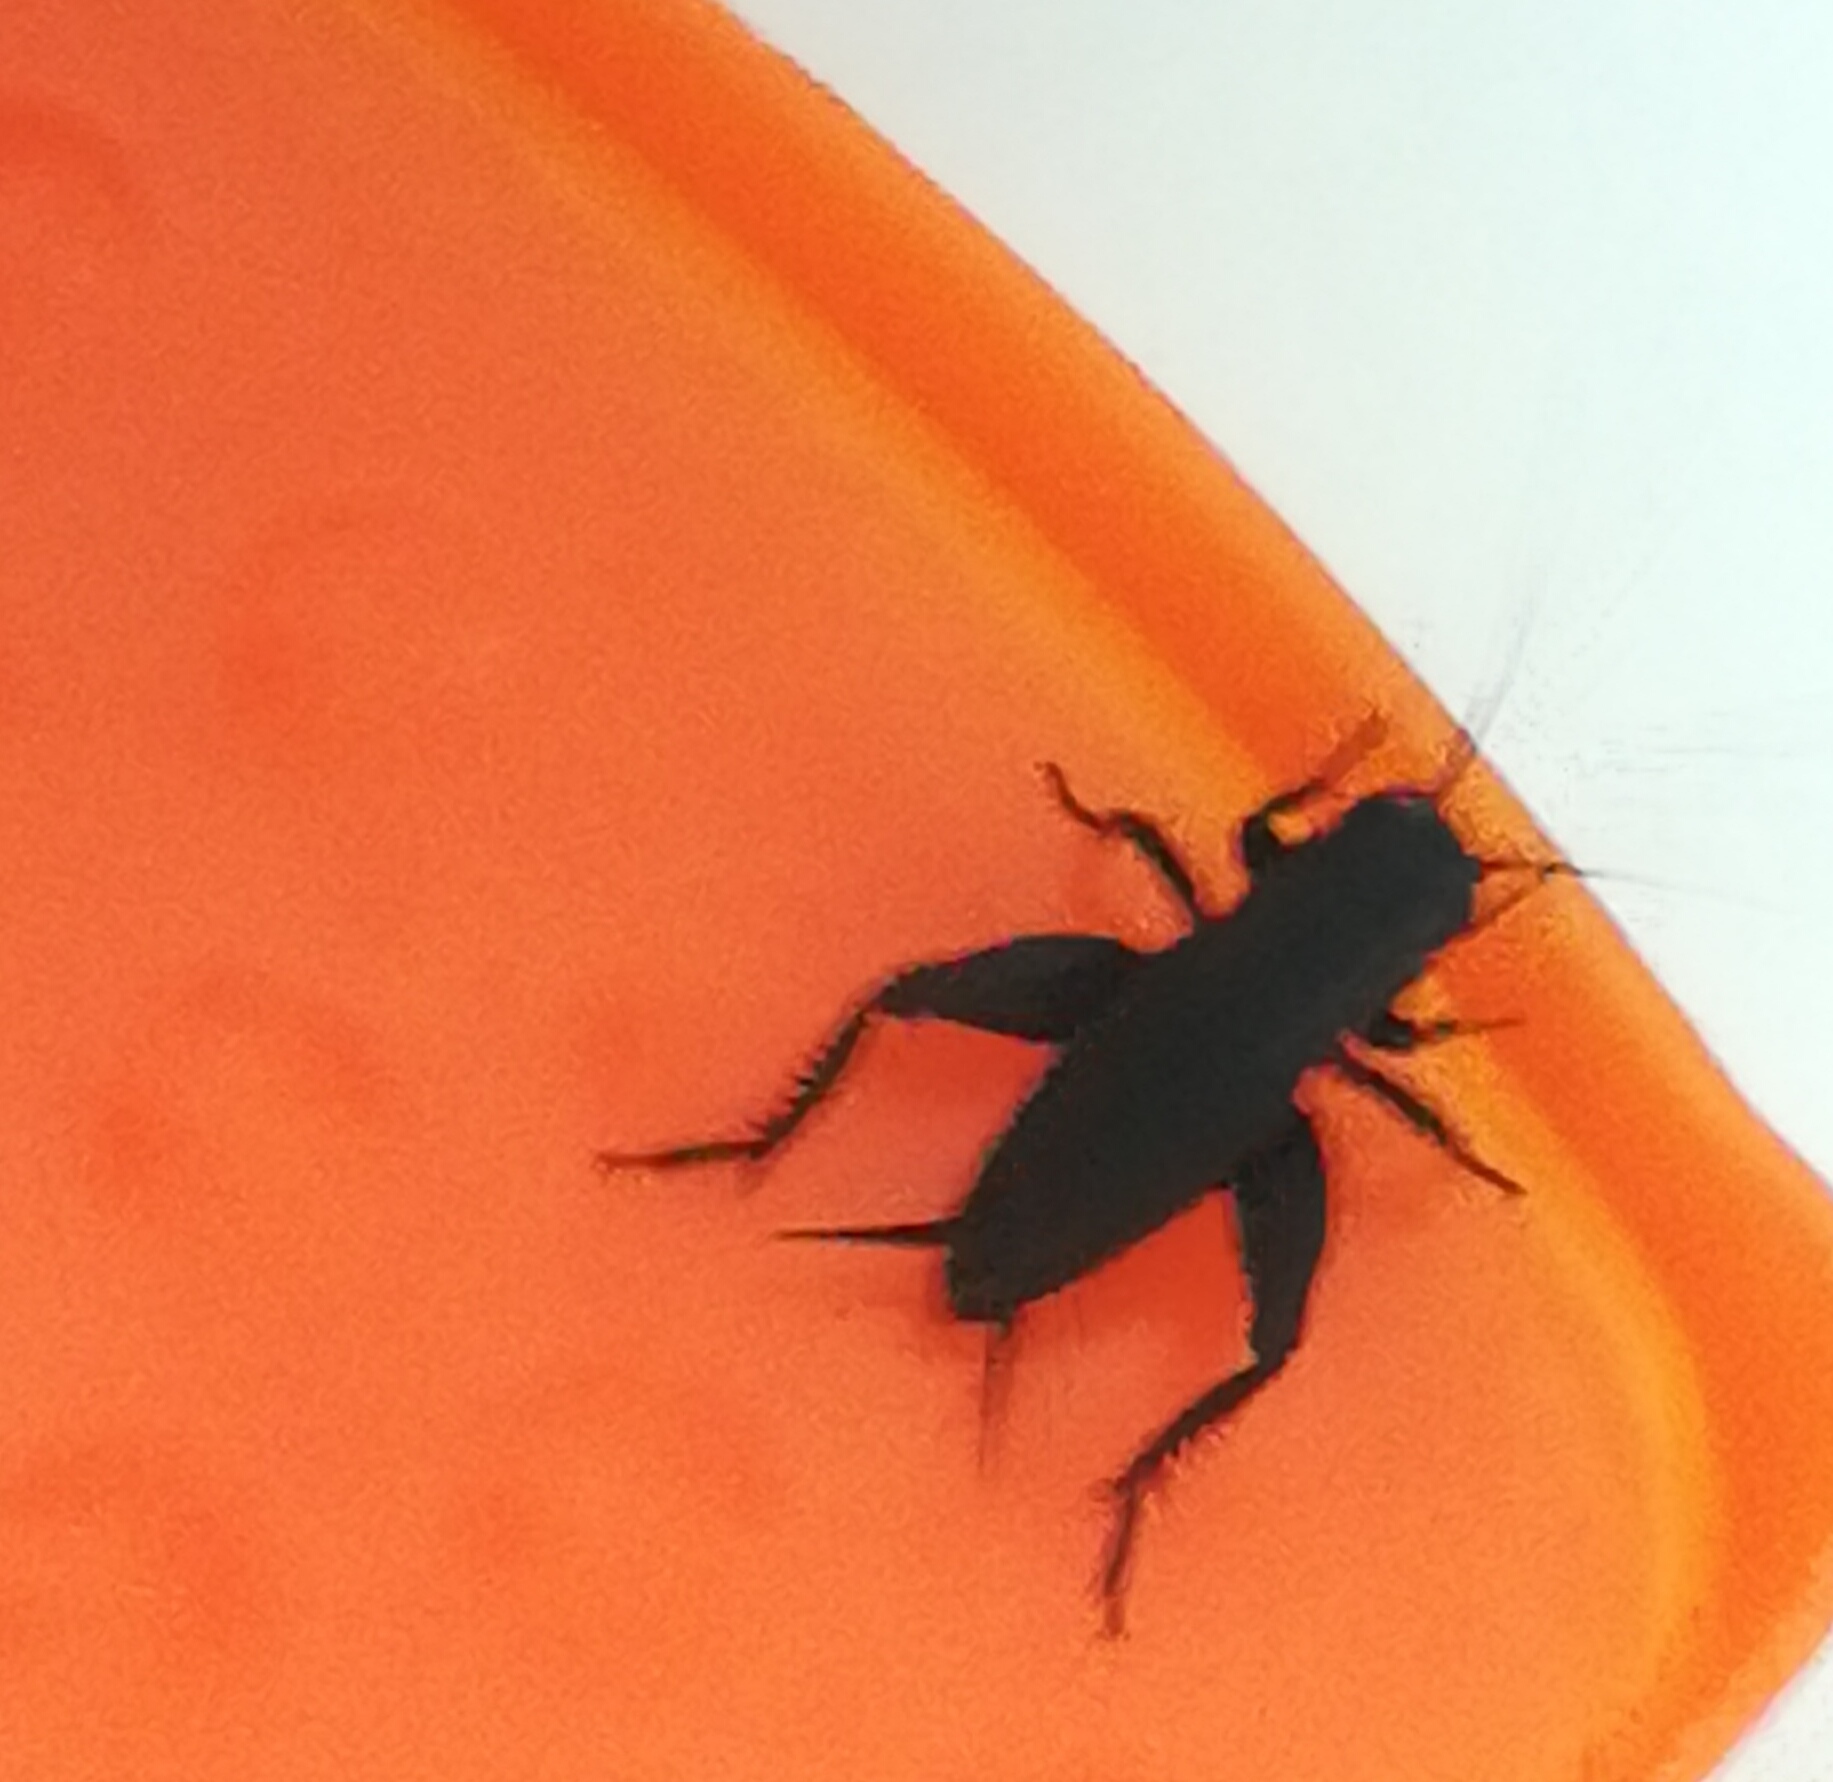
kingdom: Animalia
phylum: Arthropoda
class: Insecta
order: Orthoptera
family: Gryllidae
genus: Melanogryllus
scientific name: Melanogryllus desertus
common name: Desert cricket
